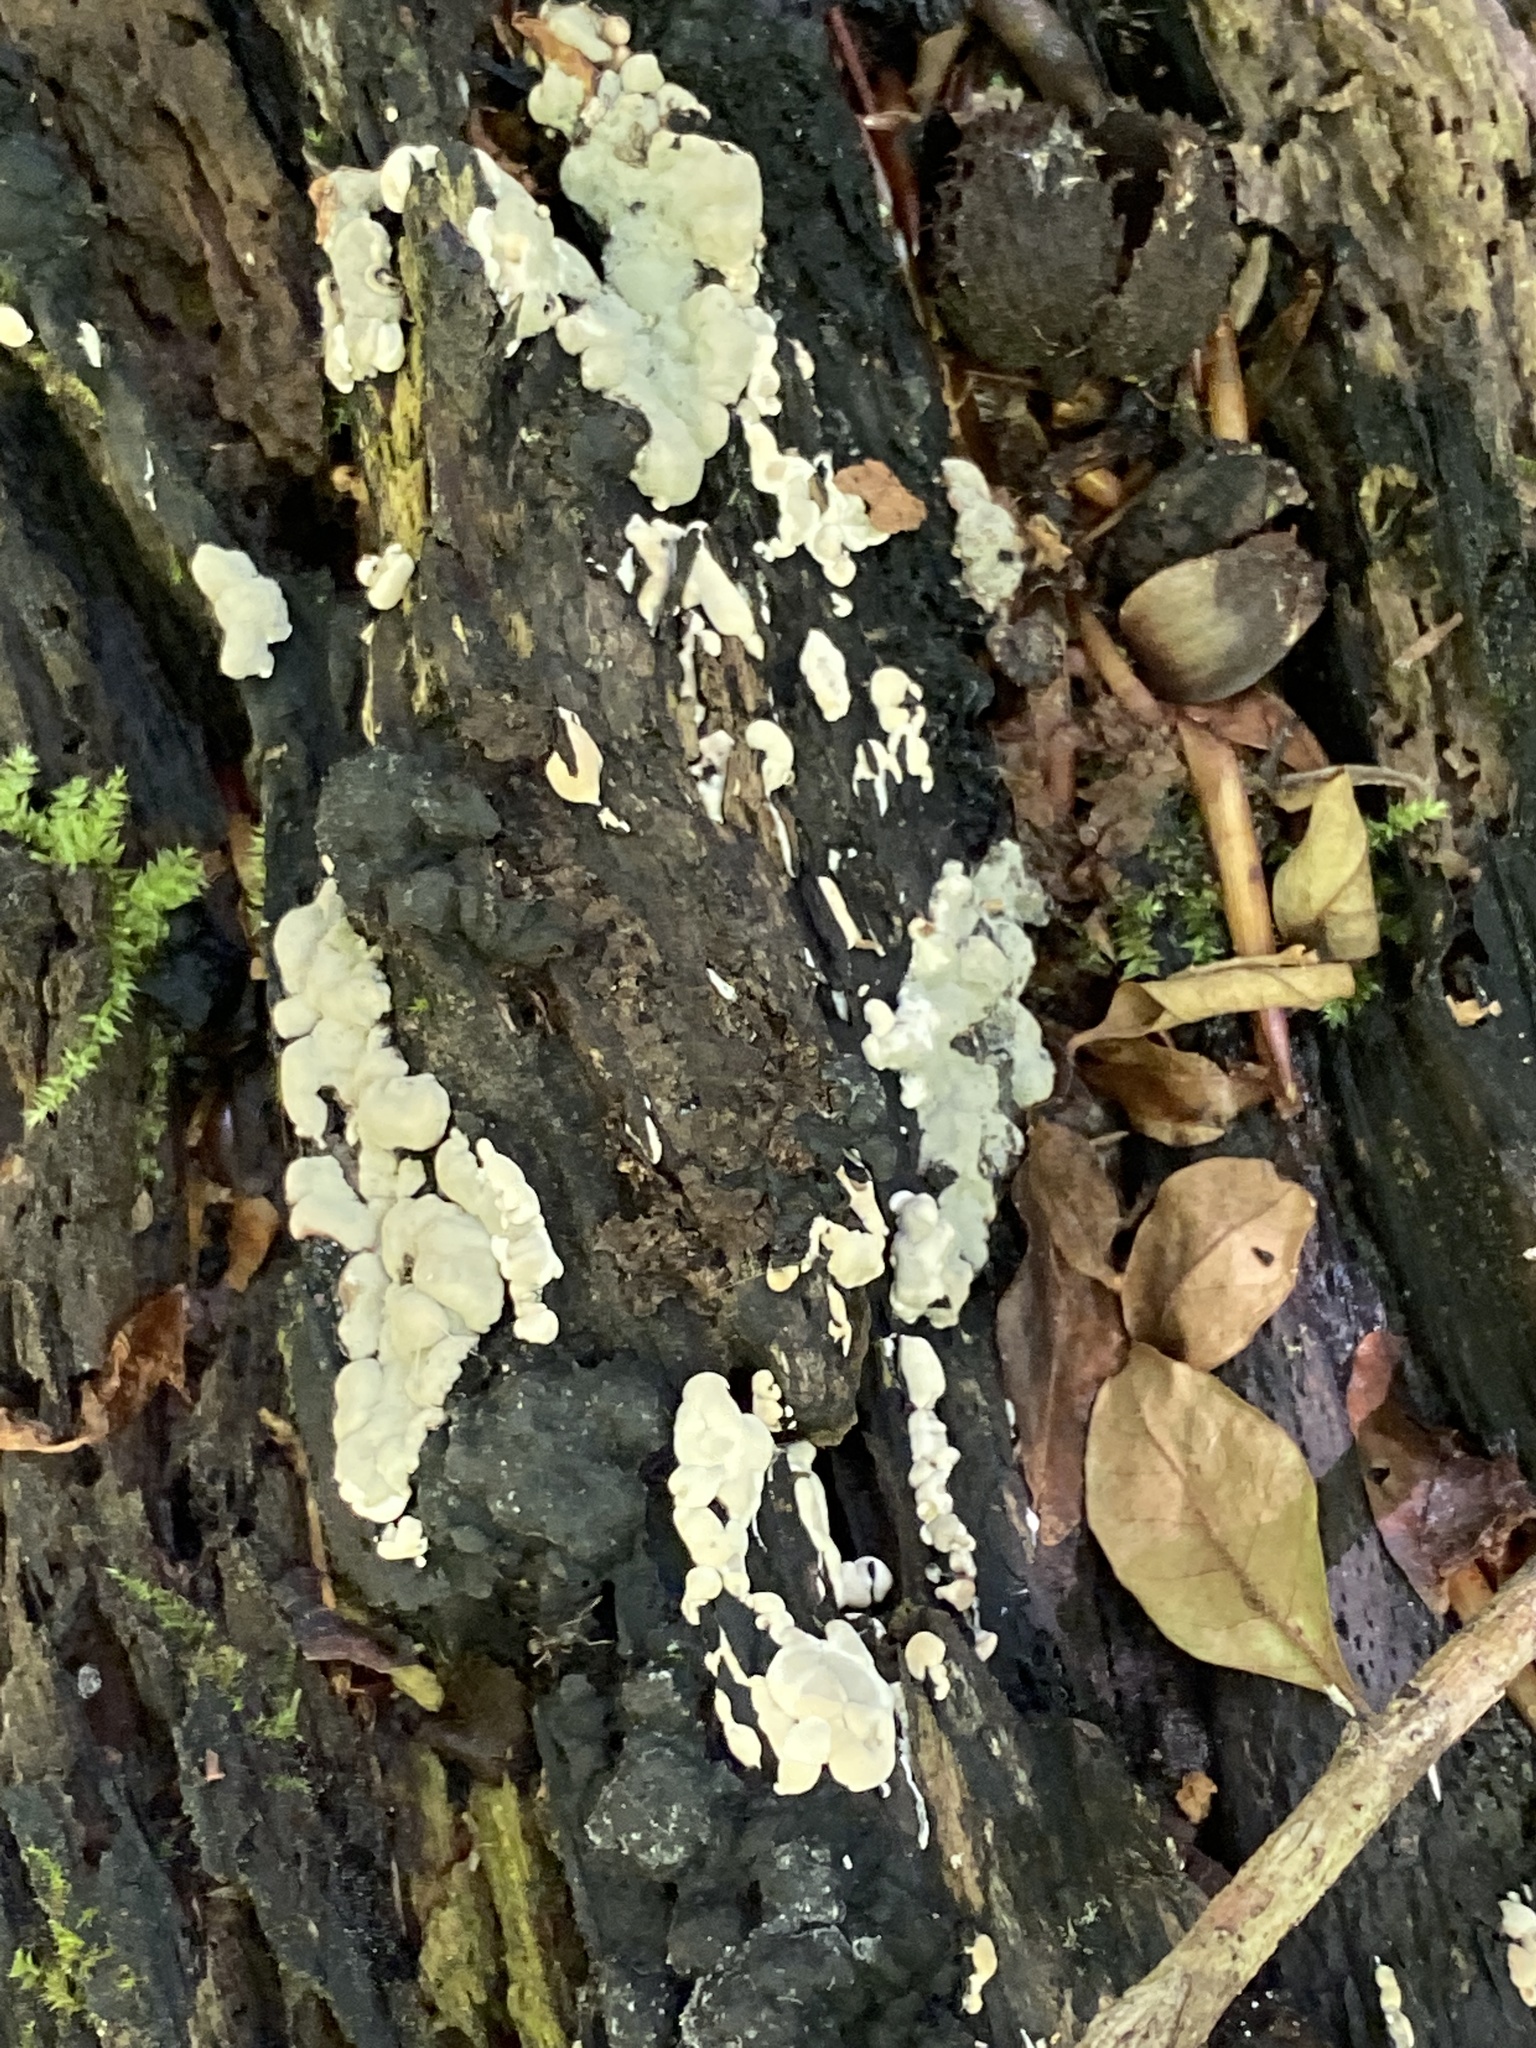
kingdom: Fungi
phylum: Ascomycota
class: Sordariomycetes
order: Xylariales
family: Xylariaceae
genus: Kretzschmaria
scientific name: Kretzschmaria deusta
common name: Brittle cinder
